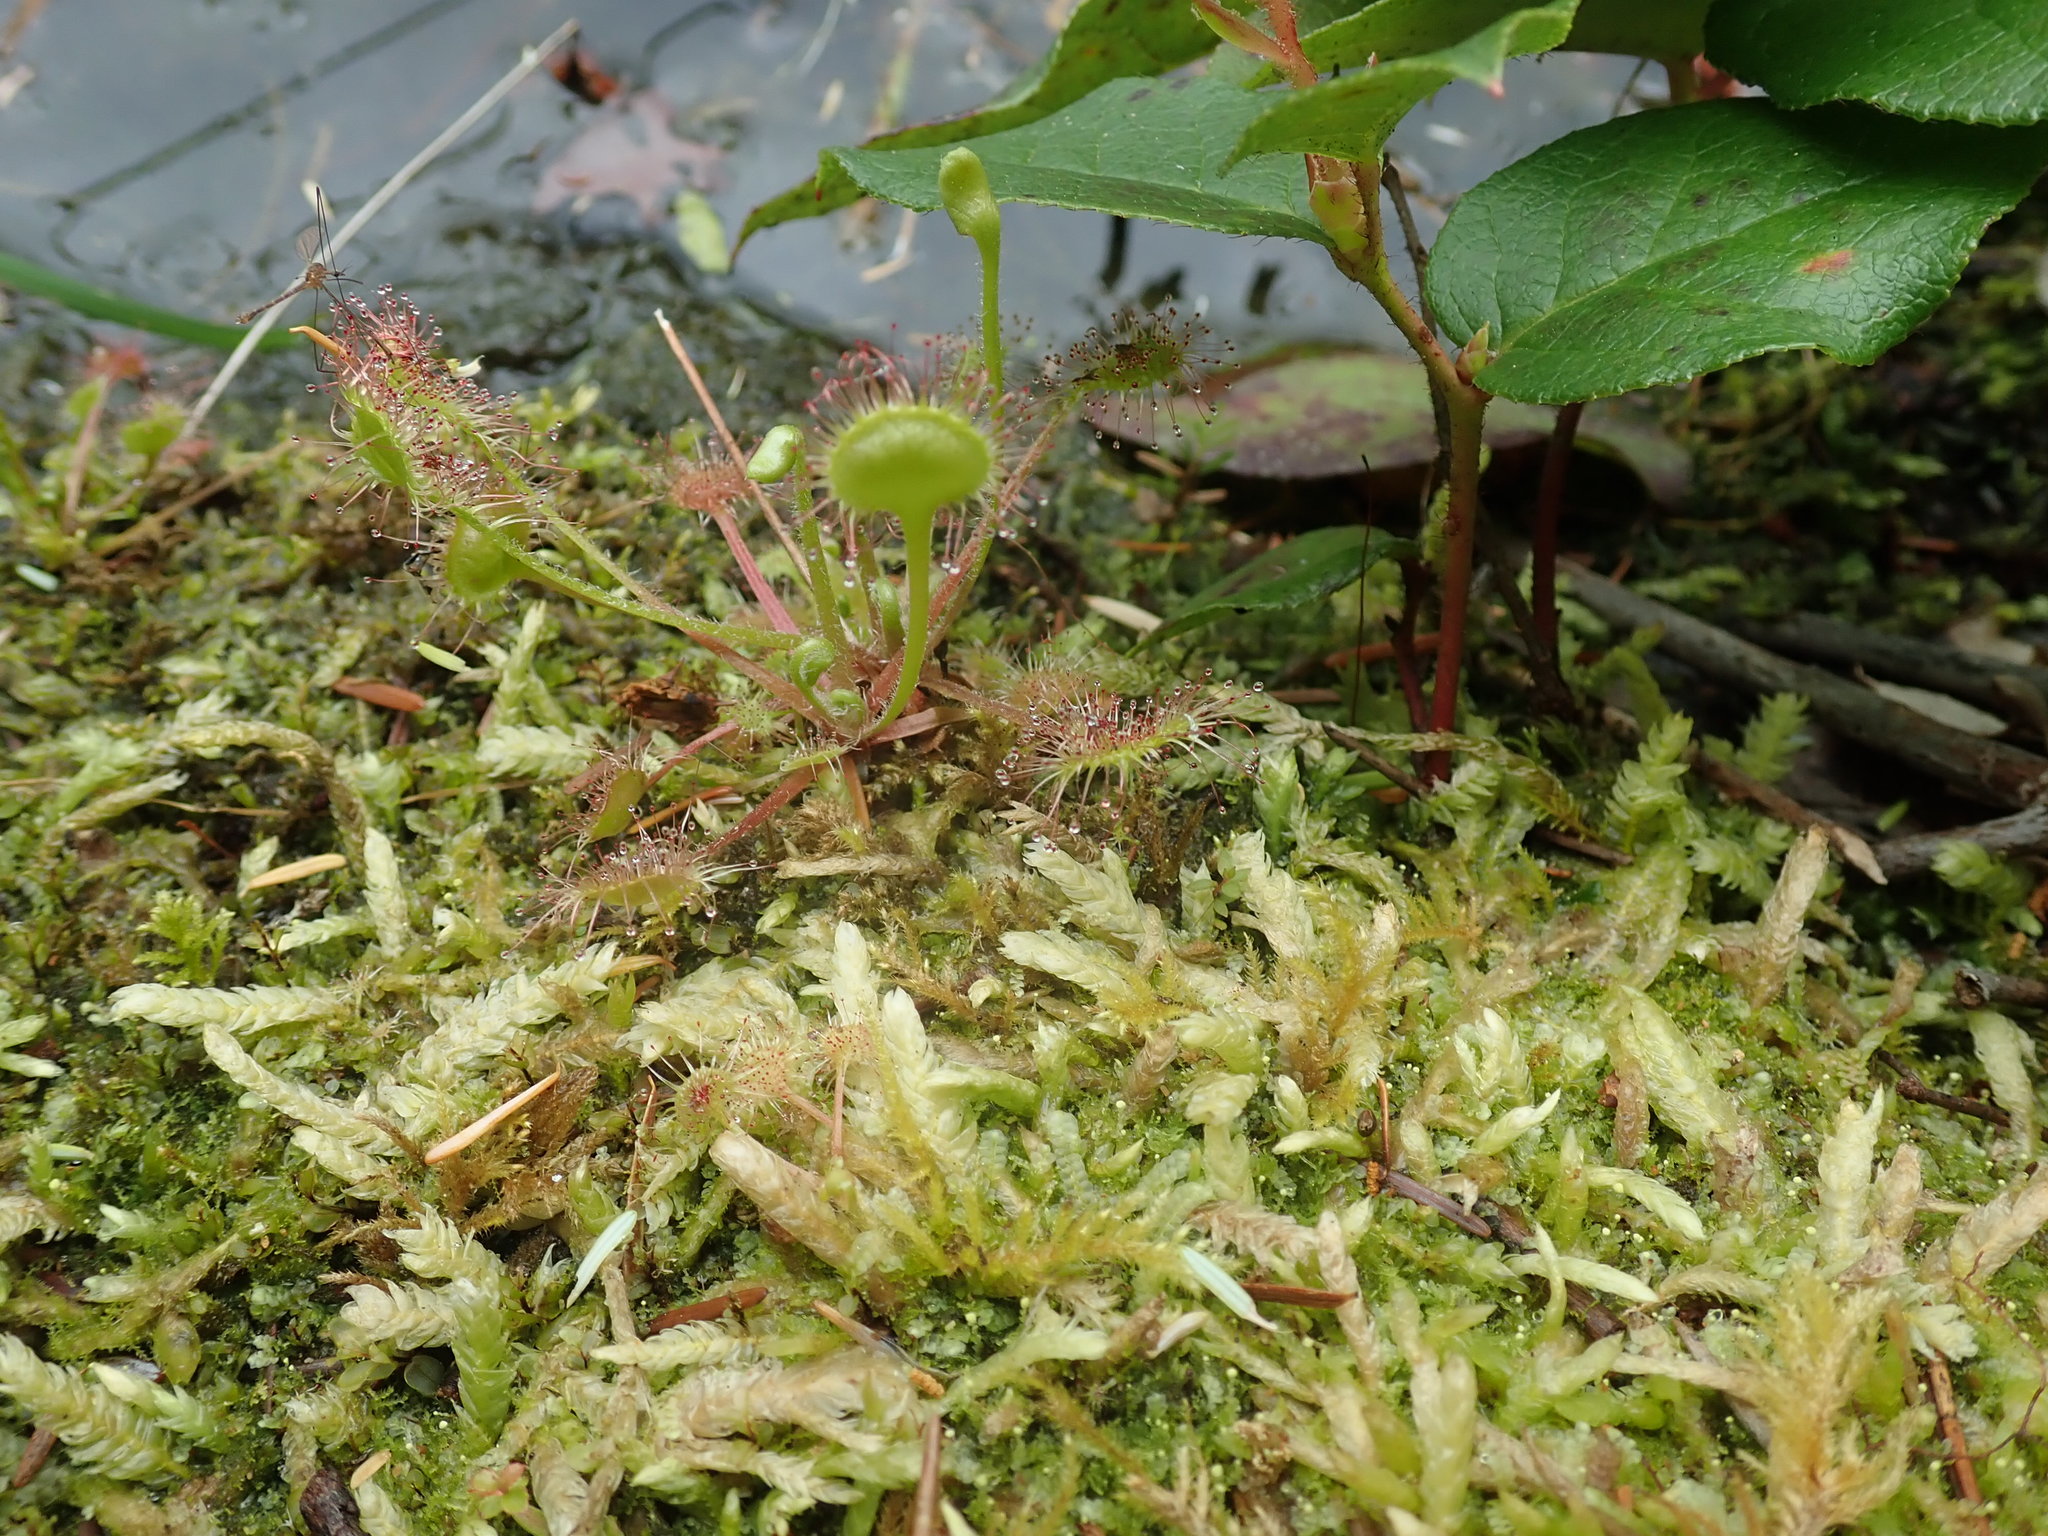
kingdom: Plantae
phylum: Tracheophyta
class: Magnoliopsida
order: Caryophyllales
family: Droseraceae
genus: Drosera
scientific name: Drosera rotundifolia
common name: Round-leaved sundew
